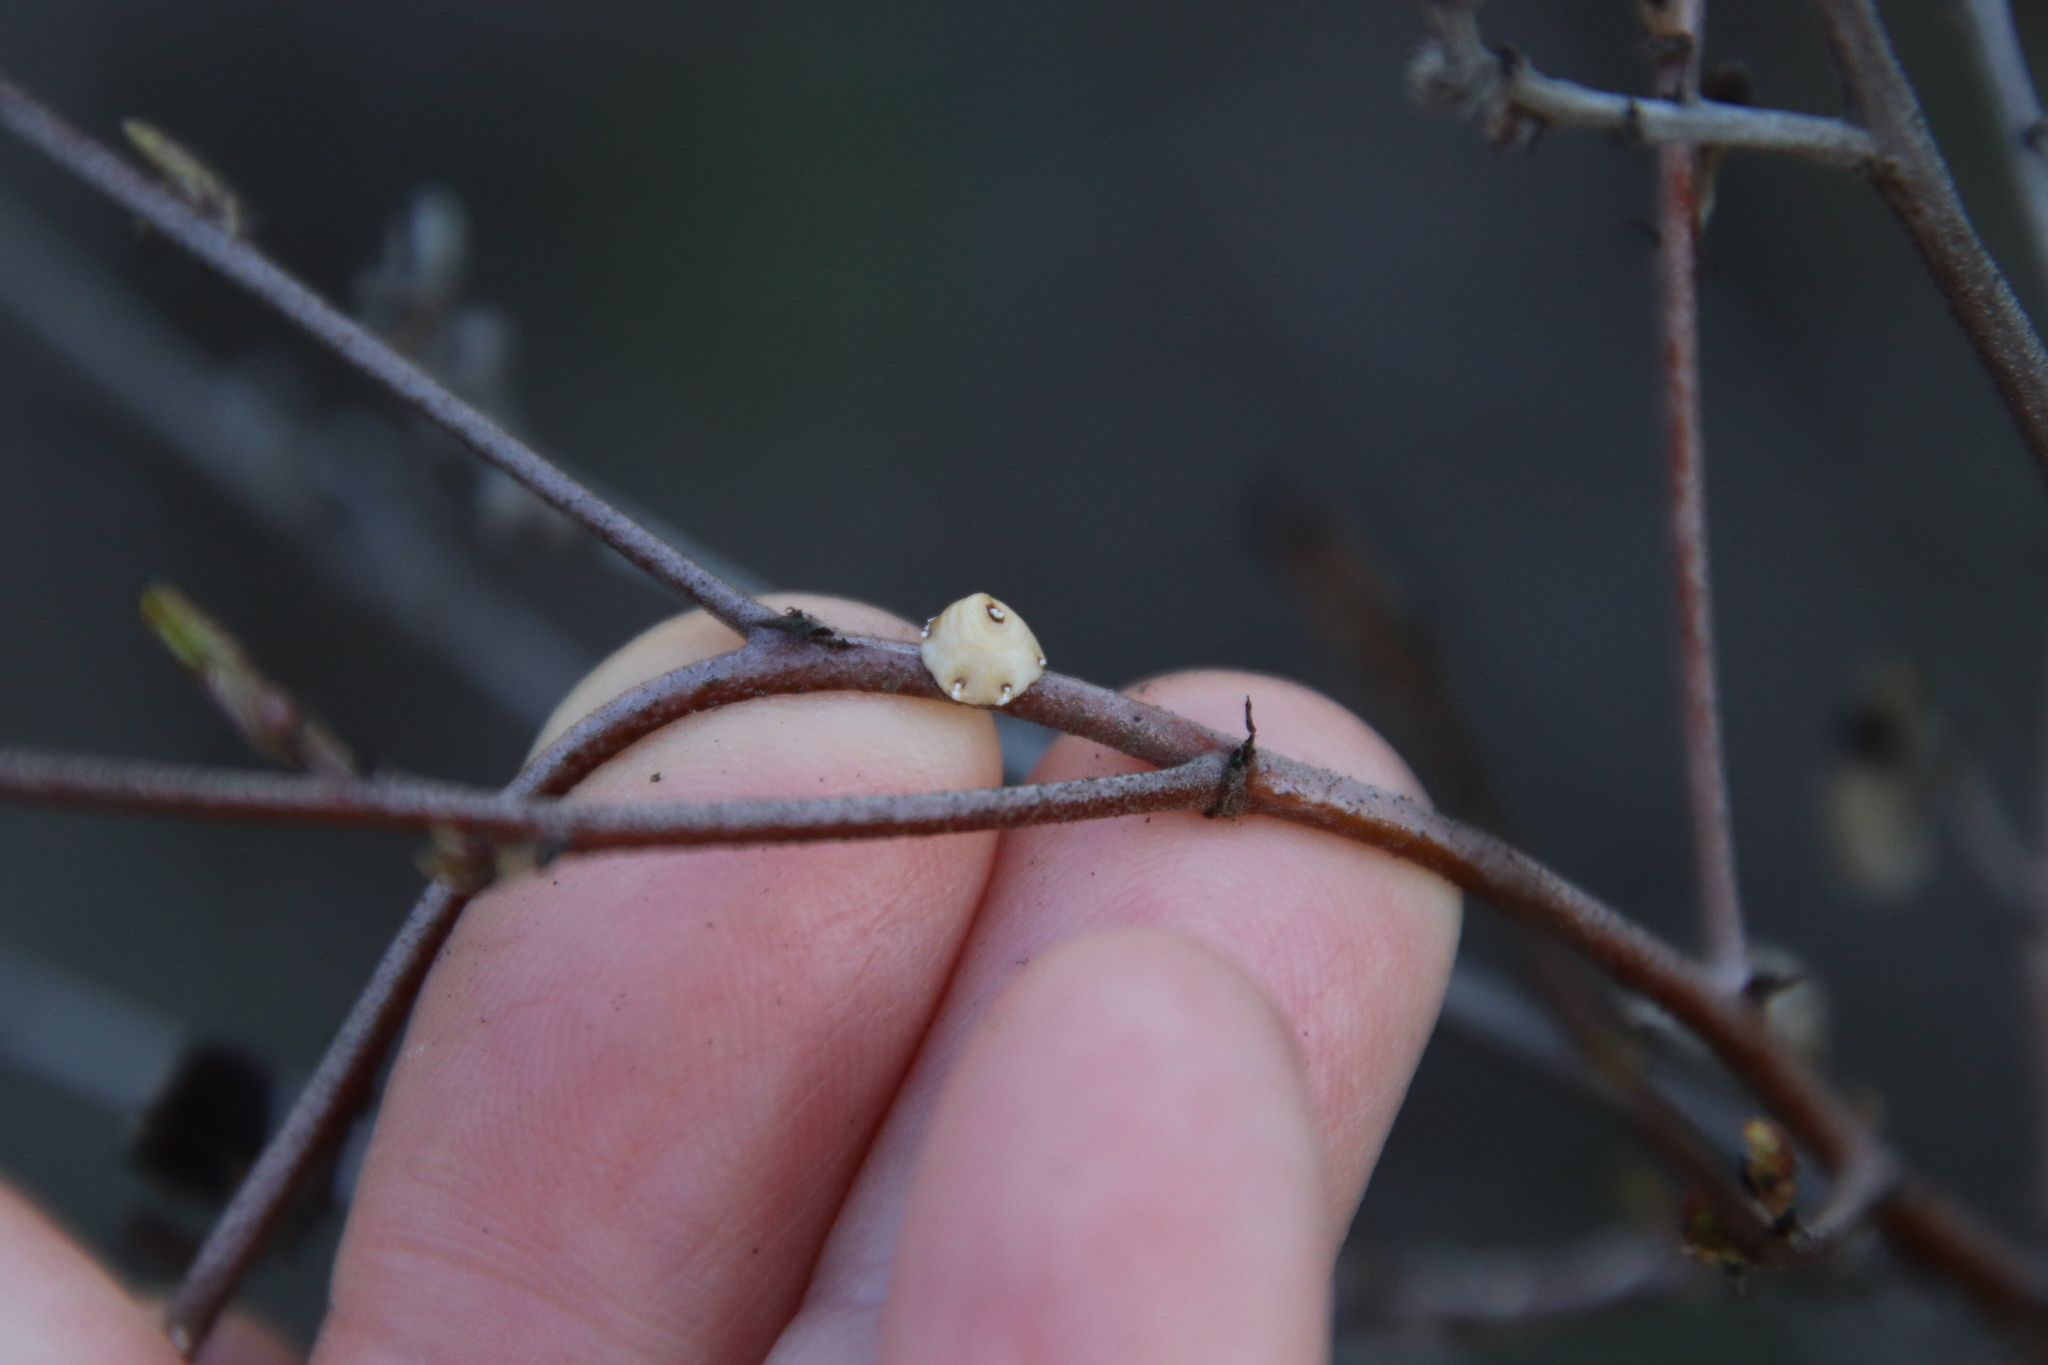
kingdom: Animalia
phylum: Arthropoda
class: Insecta
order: Hemiptera
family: Coccidae
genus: Ceroplastes
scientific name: Ceroplastes sinensis
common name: Hard wax scale
